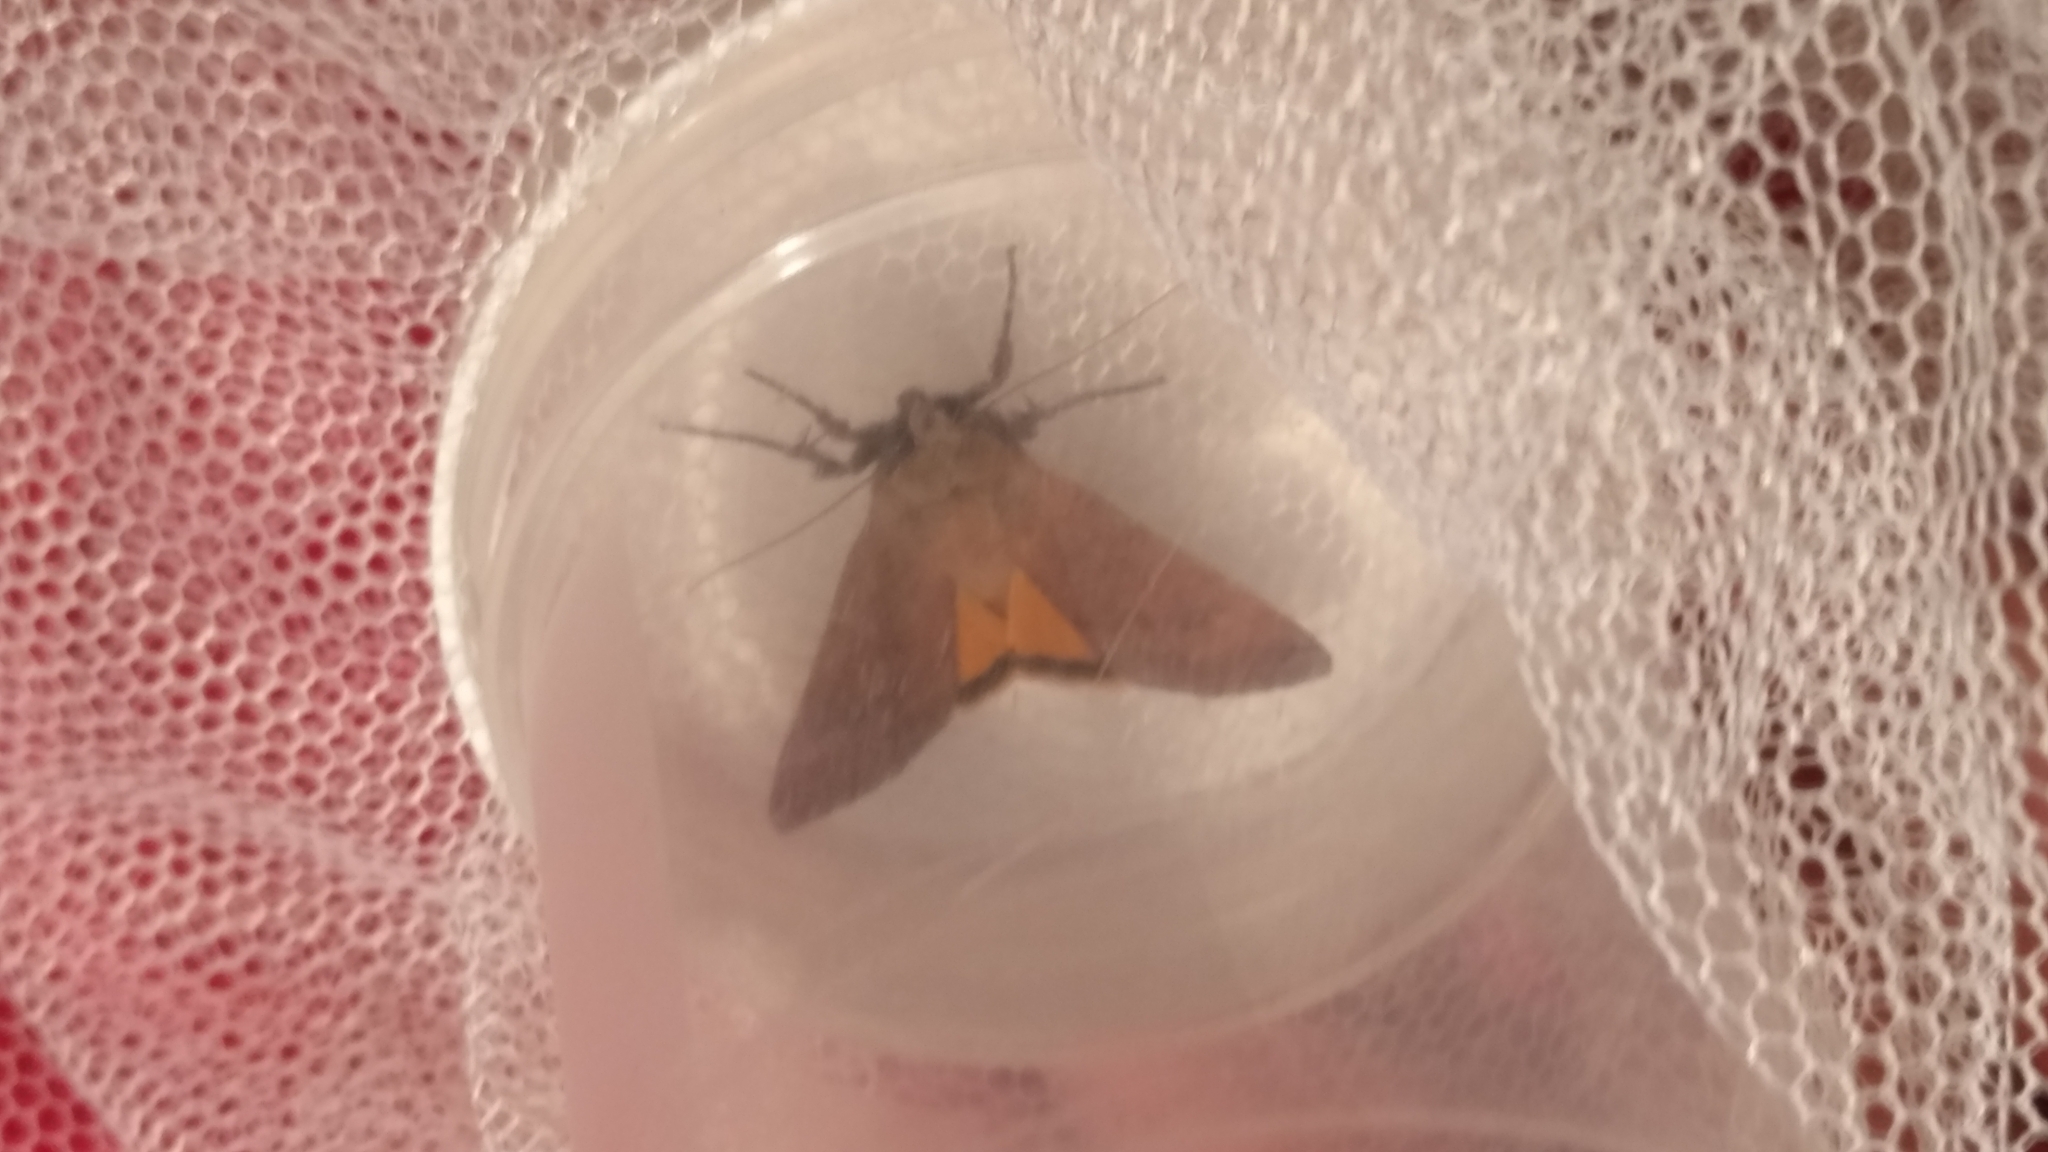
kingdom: Animalia
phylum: Arthropoda
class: Insecta
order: Lepidoptera
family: Noctuidae
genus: Noctua
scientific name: Noctua pronuba
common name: Large yellow underwing
